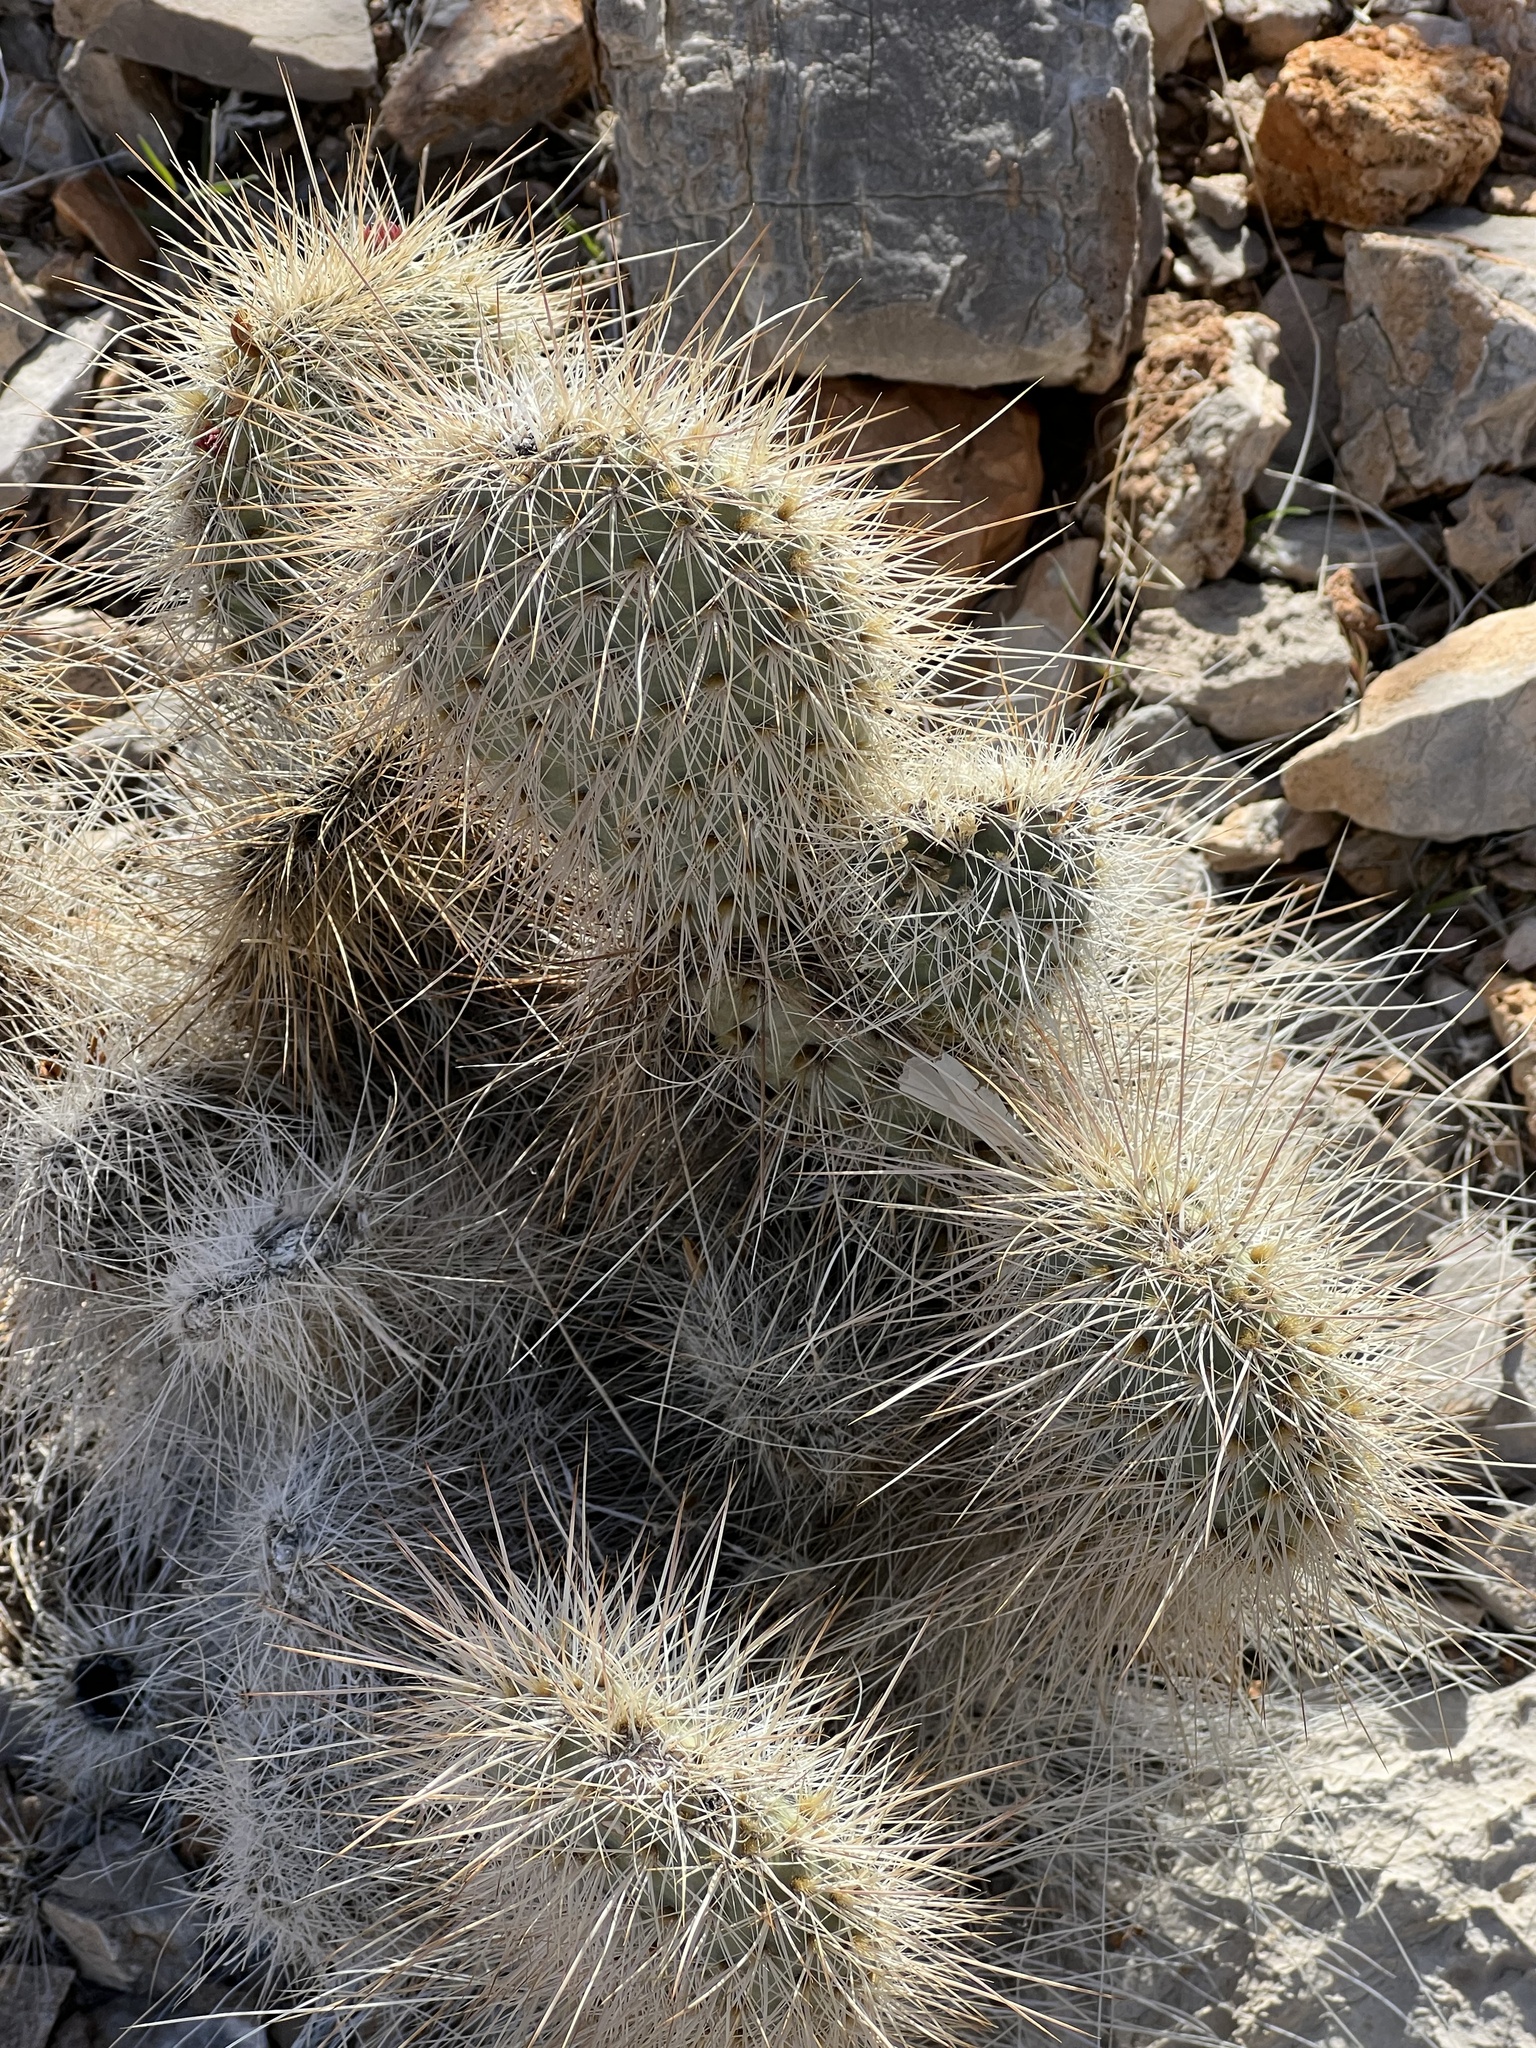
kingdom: Plantae
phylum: Tracheophyta
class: Magnoliopsida
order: Caryophyllales
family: Cactaceae
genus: Opuntia
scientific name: Opuntia polyacantha
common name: Plains prickly-pear
